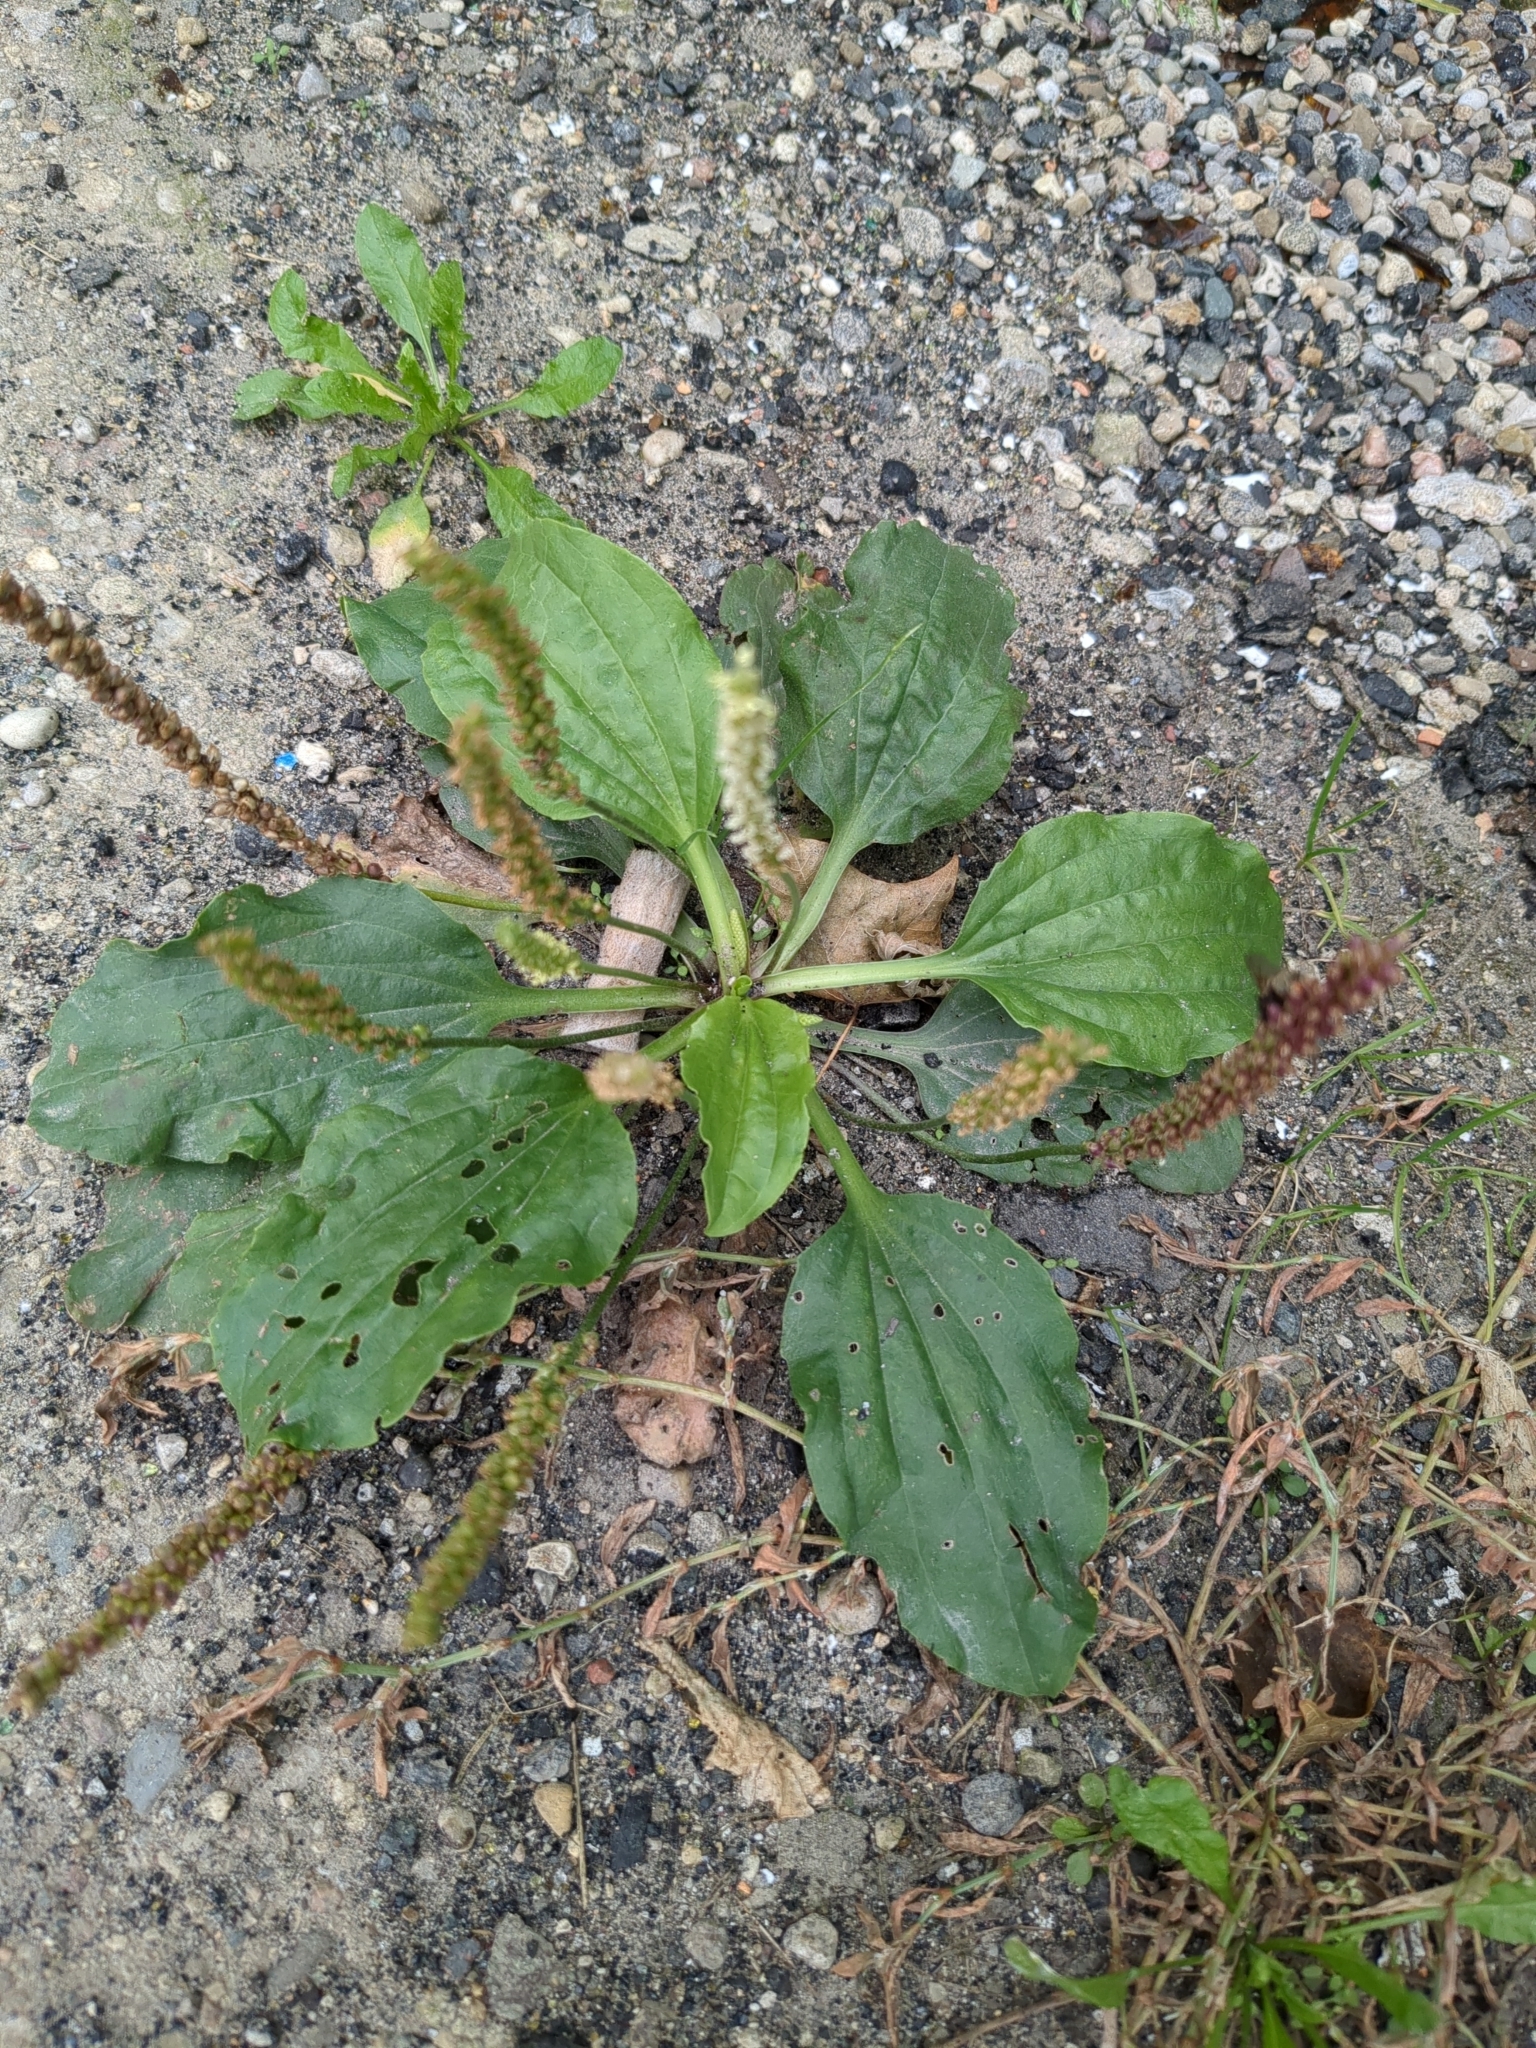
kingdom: Plantae
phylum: Tracheophyta
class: Magnoliopsida
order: Lamiales
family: Plantaginaceae
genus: Plantago
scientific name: Plantago major
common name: Common plantain
